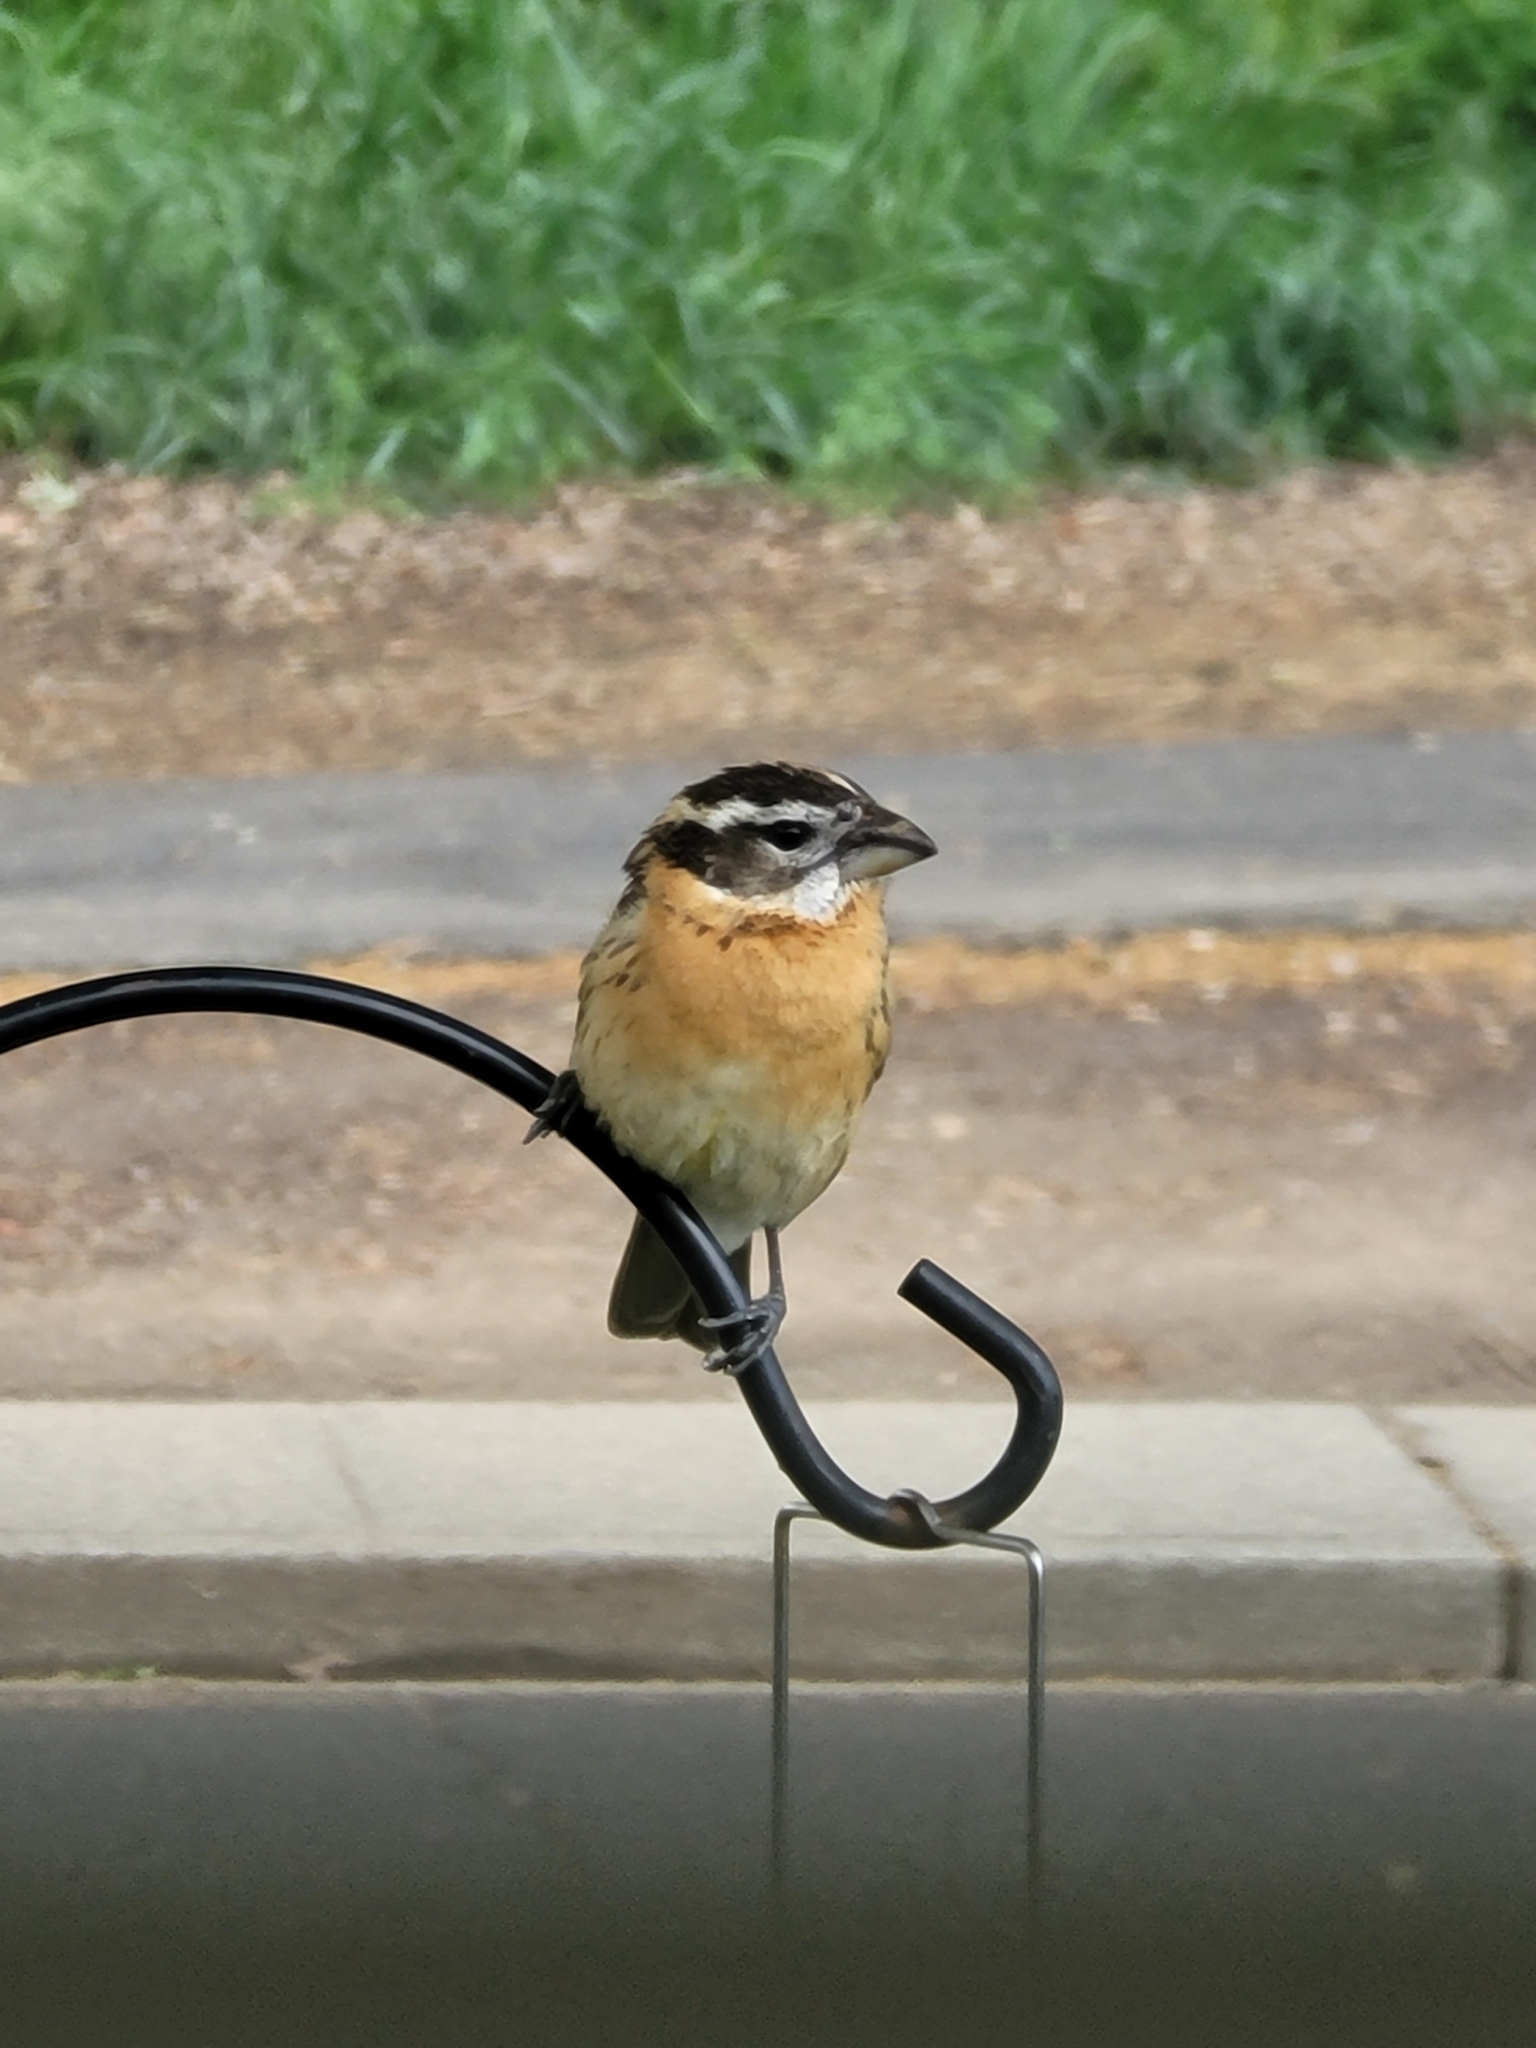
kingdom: Animalia
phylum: Chordata
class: Aves
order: Passeriformes
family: Cardinalidae
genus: Pheucticus
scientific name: Pheucticus melanocephalus
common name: Black-headed grosbeak
